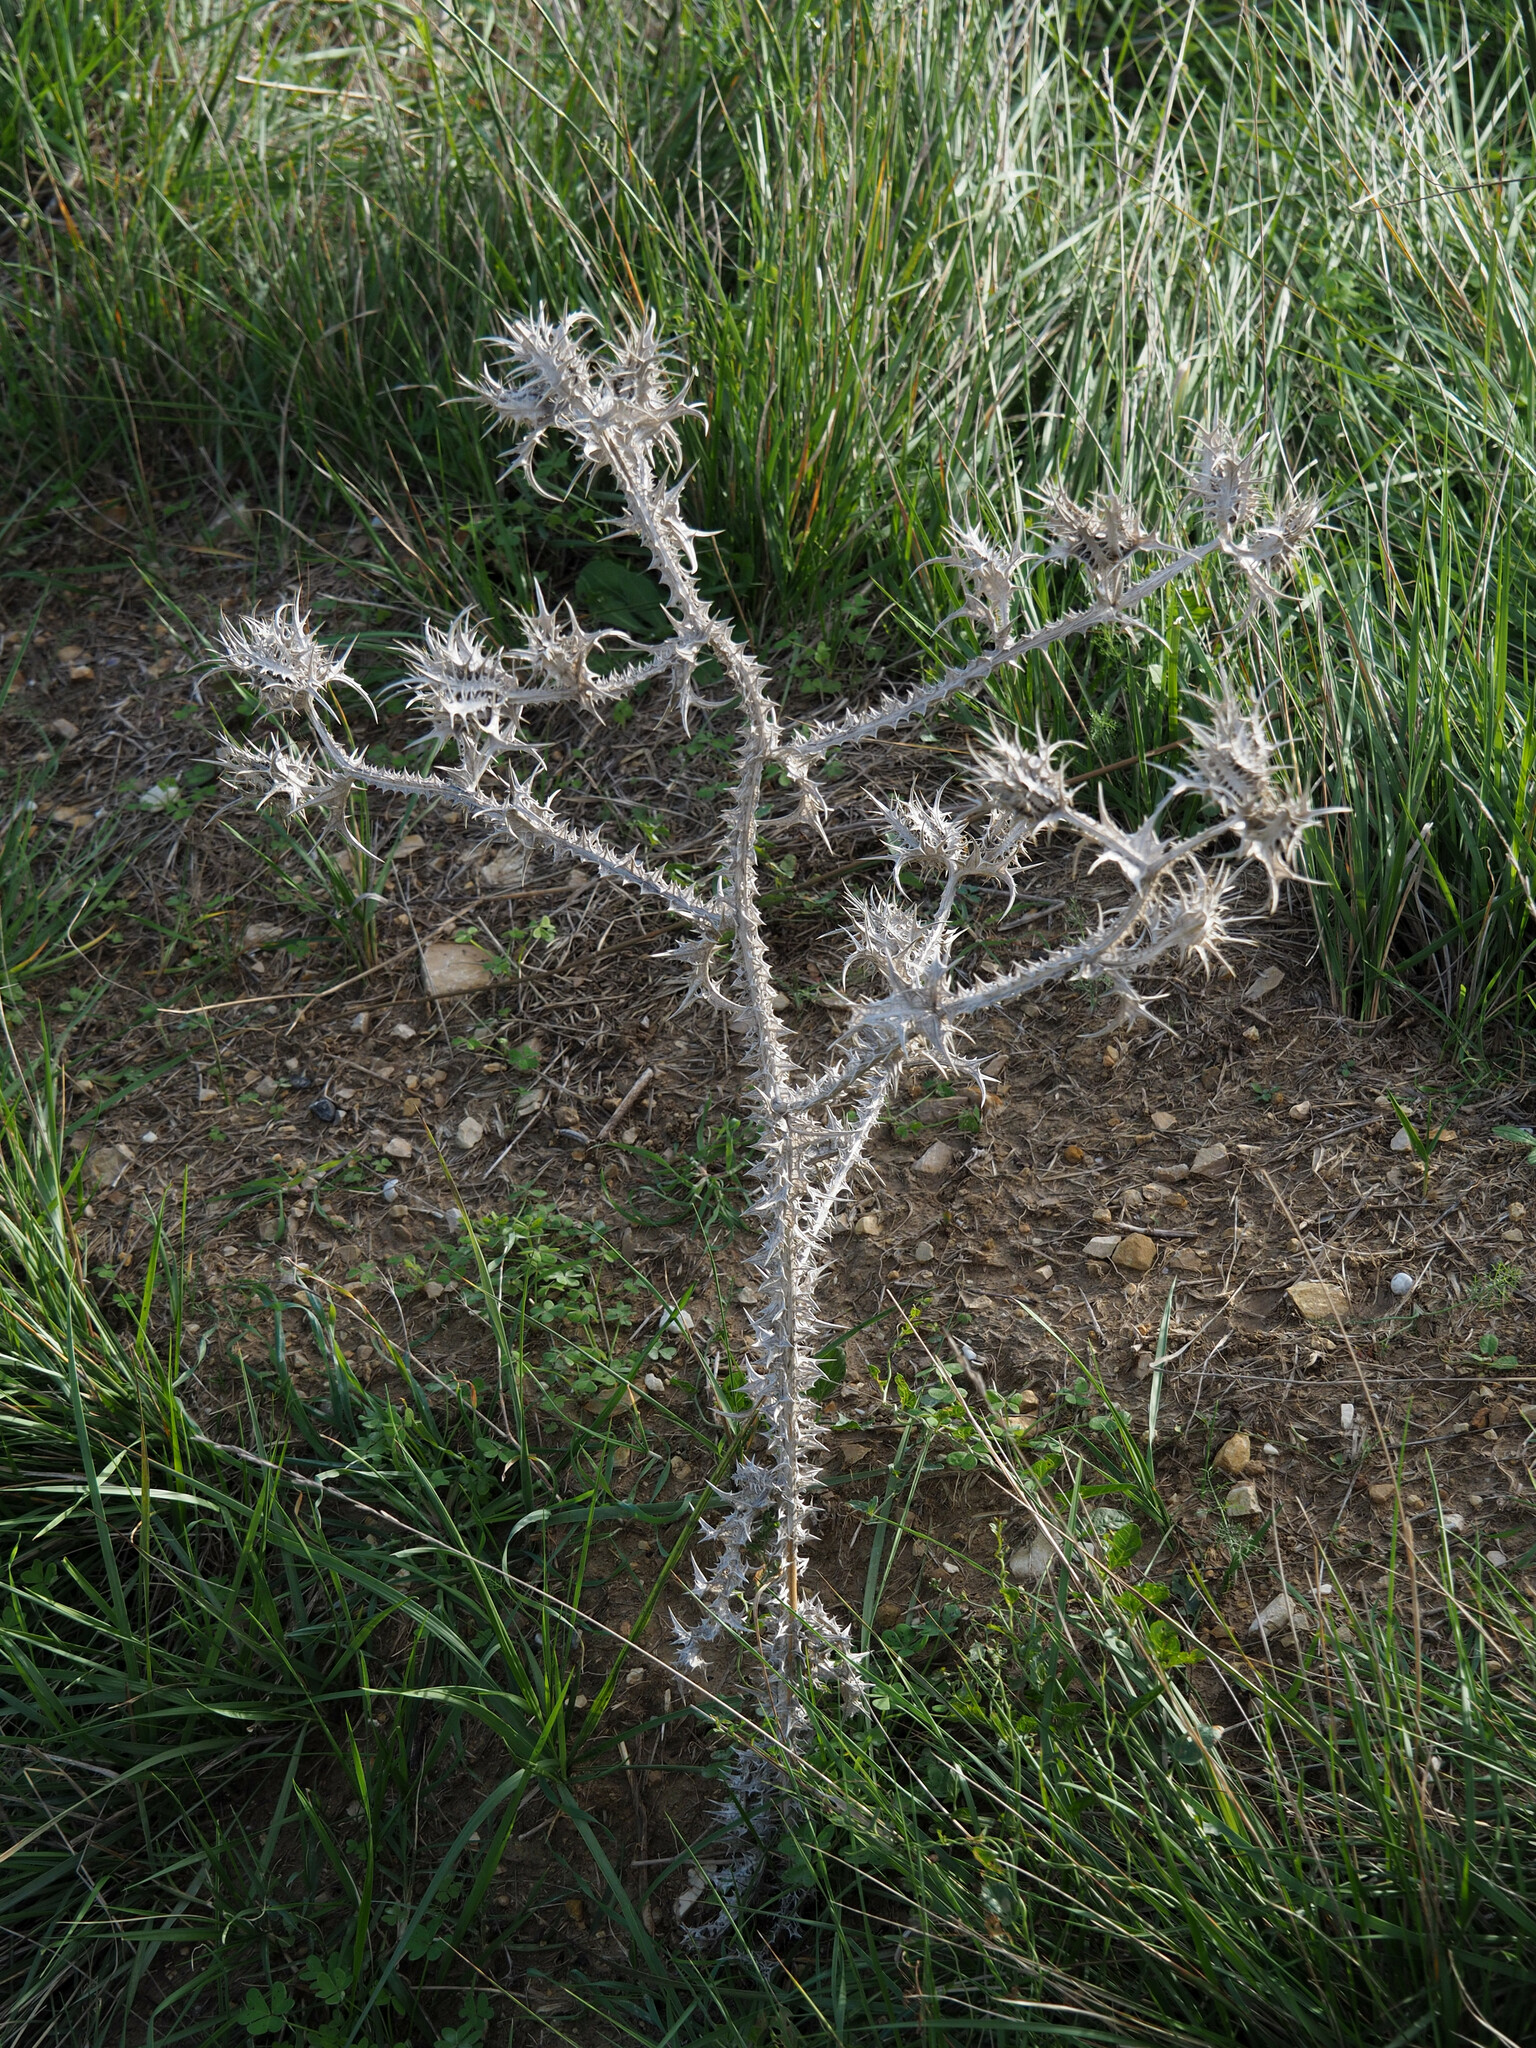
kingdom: Plantae
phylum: Tracheophyta
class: Magnoliopsida
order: Asterales
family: Asteraceae
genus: Scolymus
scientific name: Scolymus maculatus
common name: Spotted thistle
